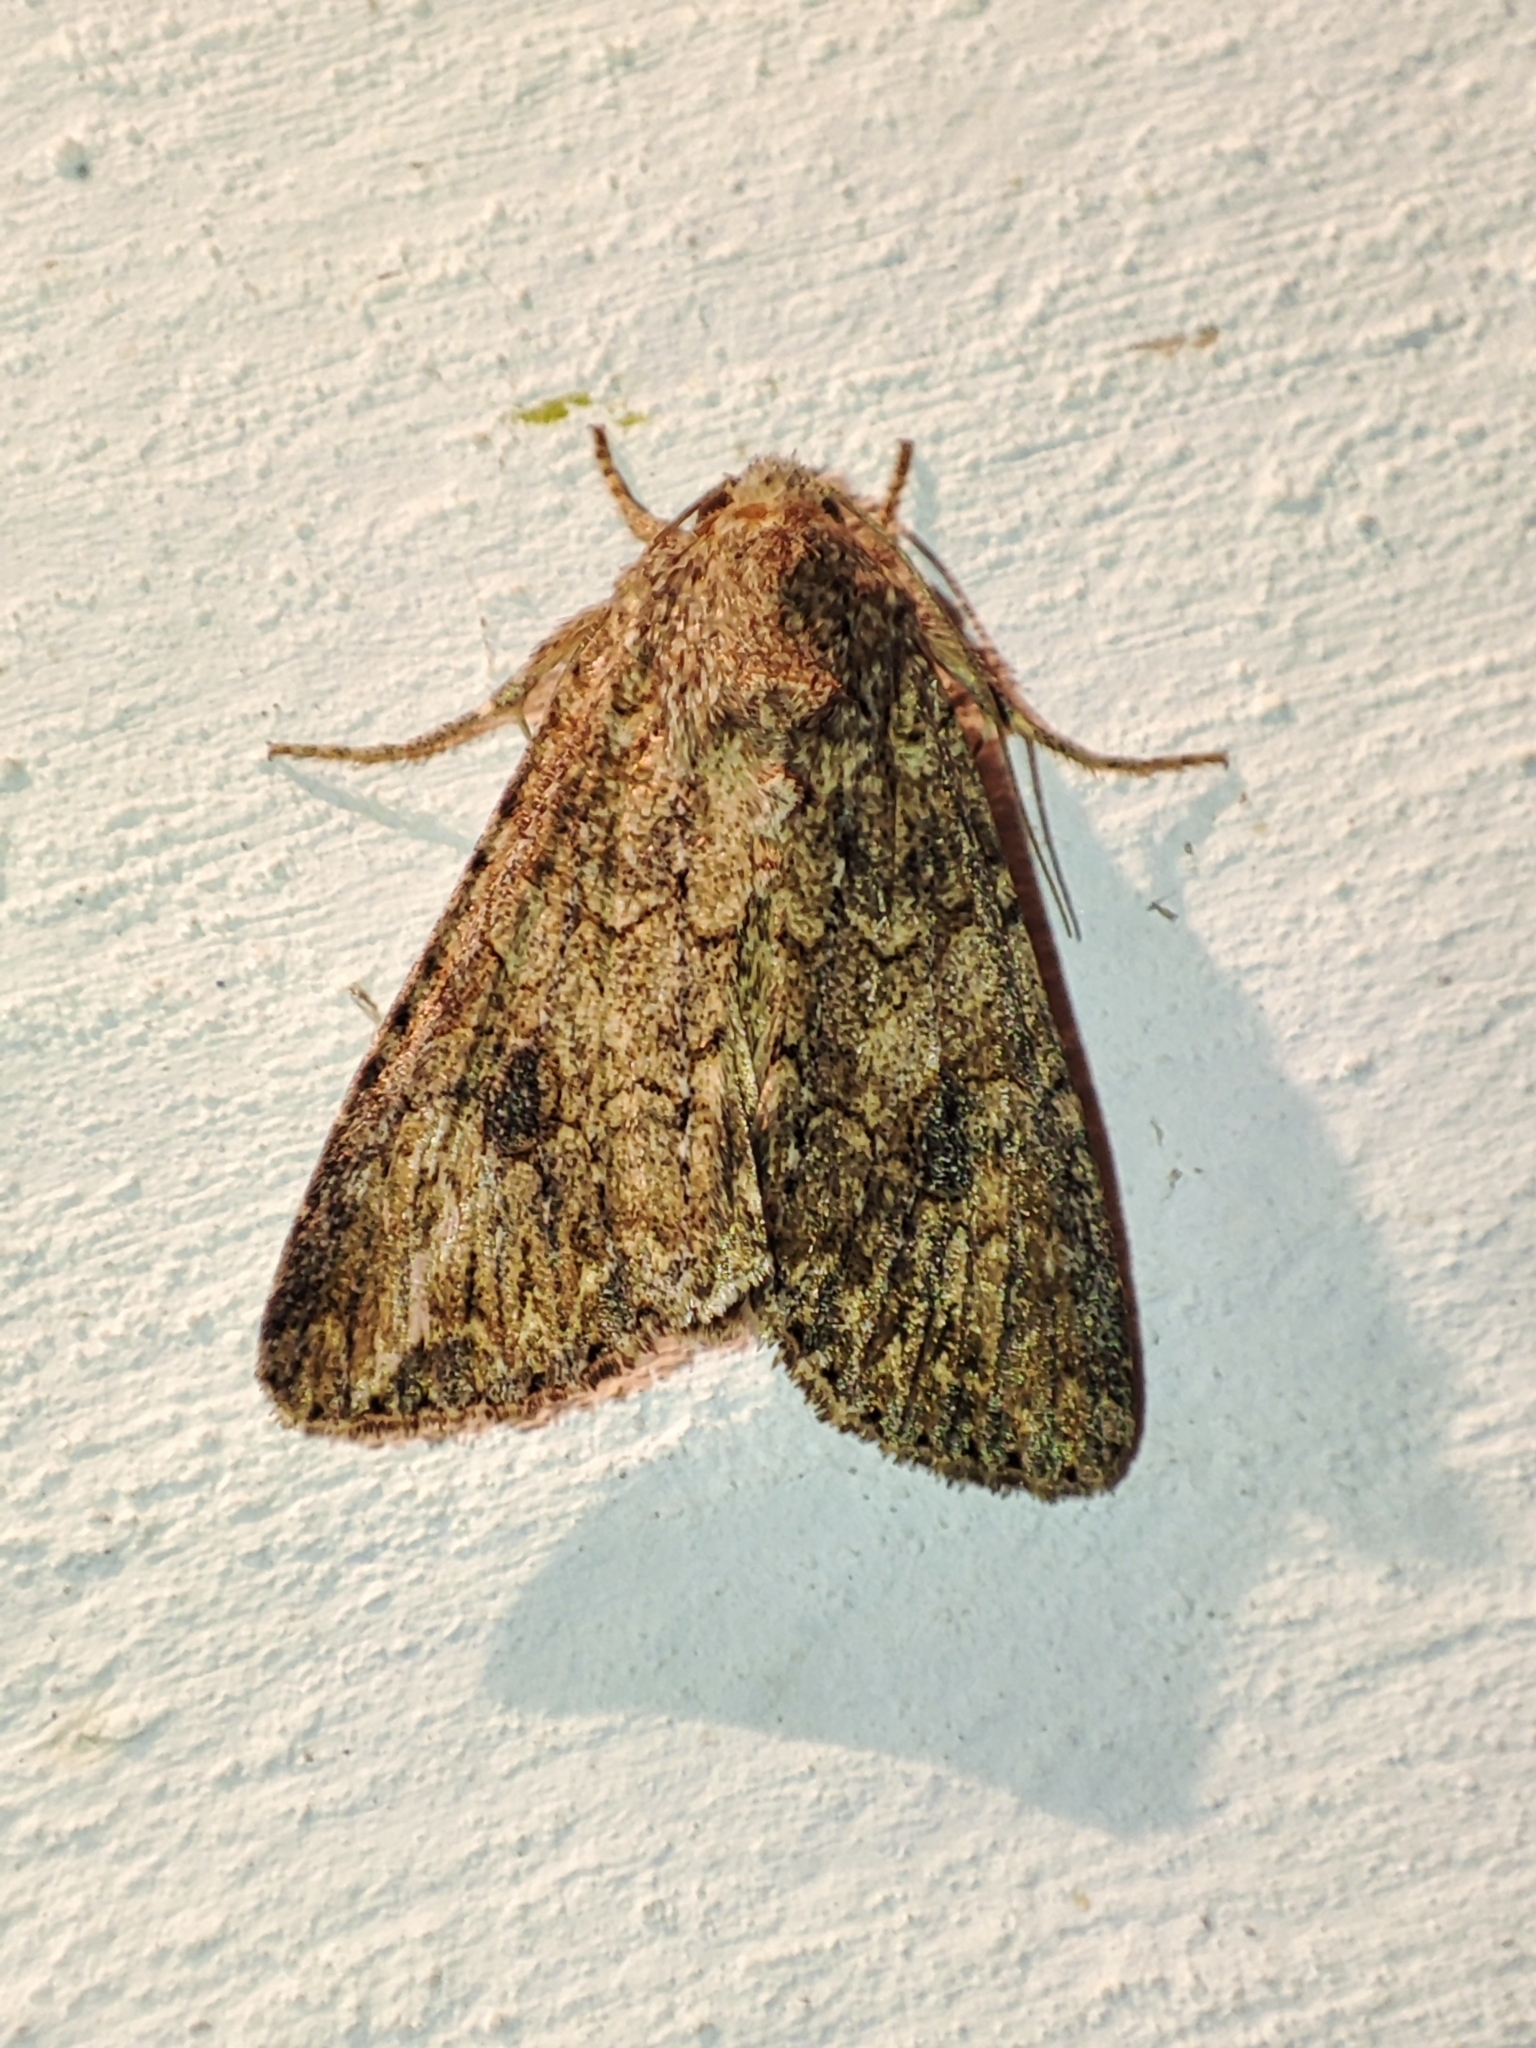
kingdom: Animalia
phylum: Arthropoda
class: Insecta
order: Lepidoptera
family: Noctuidae
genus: Anarta
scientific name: Anarta trifolii
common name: Clover cutworm moth
